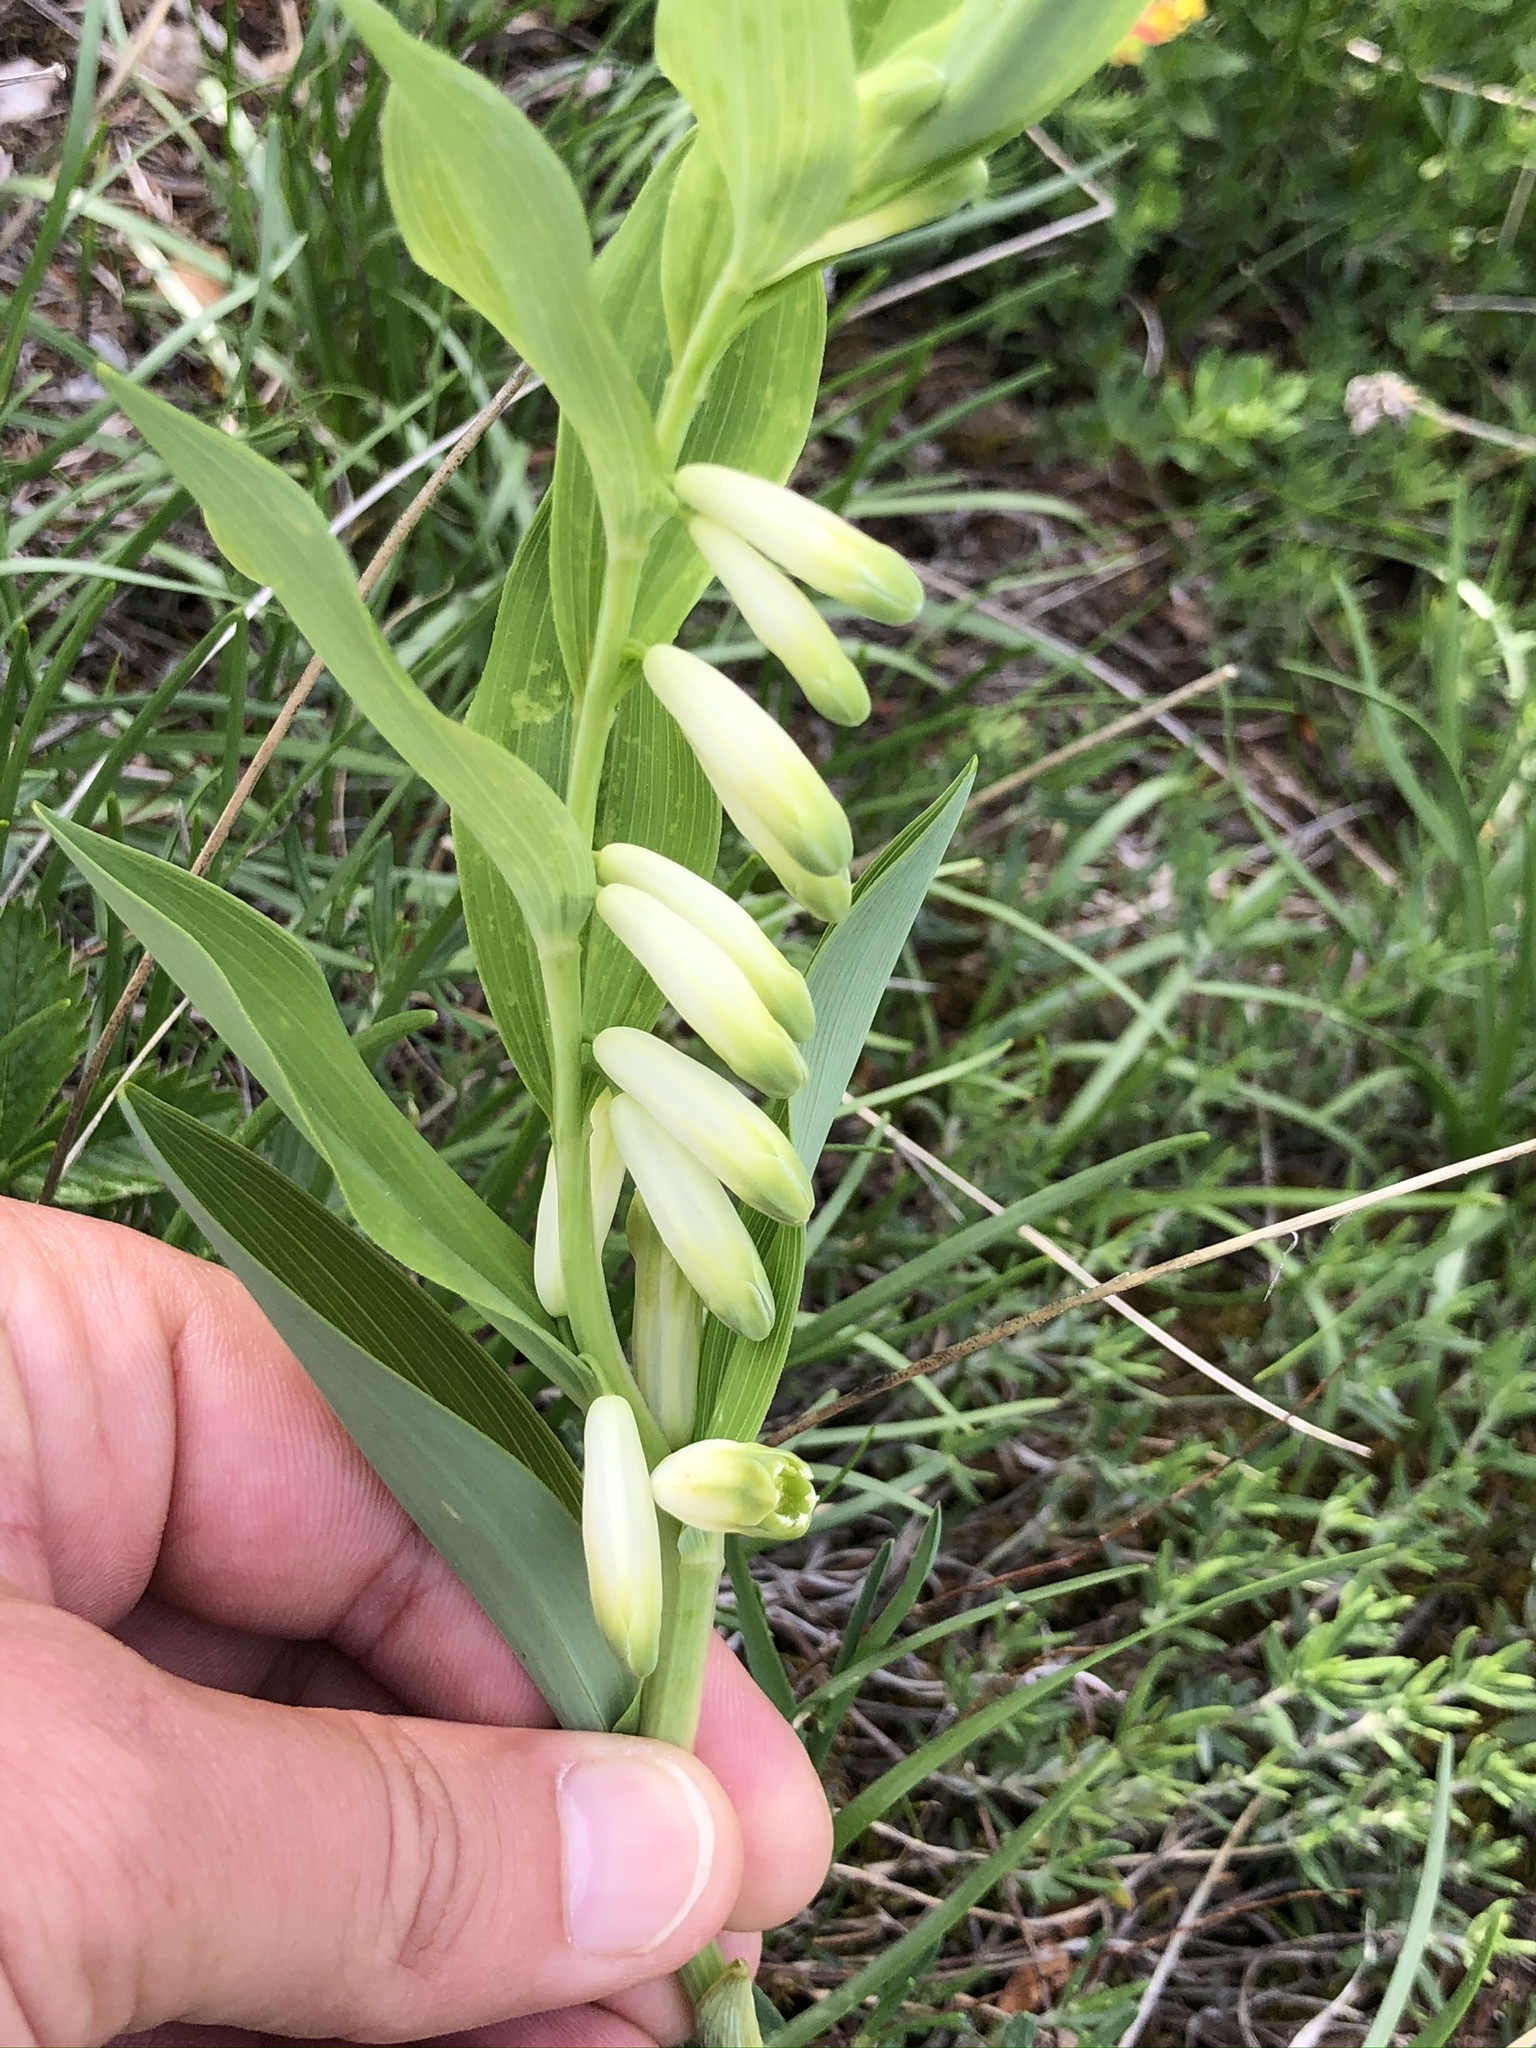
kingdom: Plantae
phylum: Tracheophyta
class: Liliopsida
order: Asparagales
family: Asparagaceae
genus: Polygonatum
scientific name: Polygonatum odoratum
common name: Angular solomon's-seal
